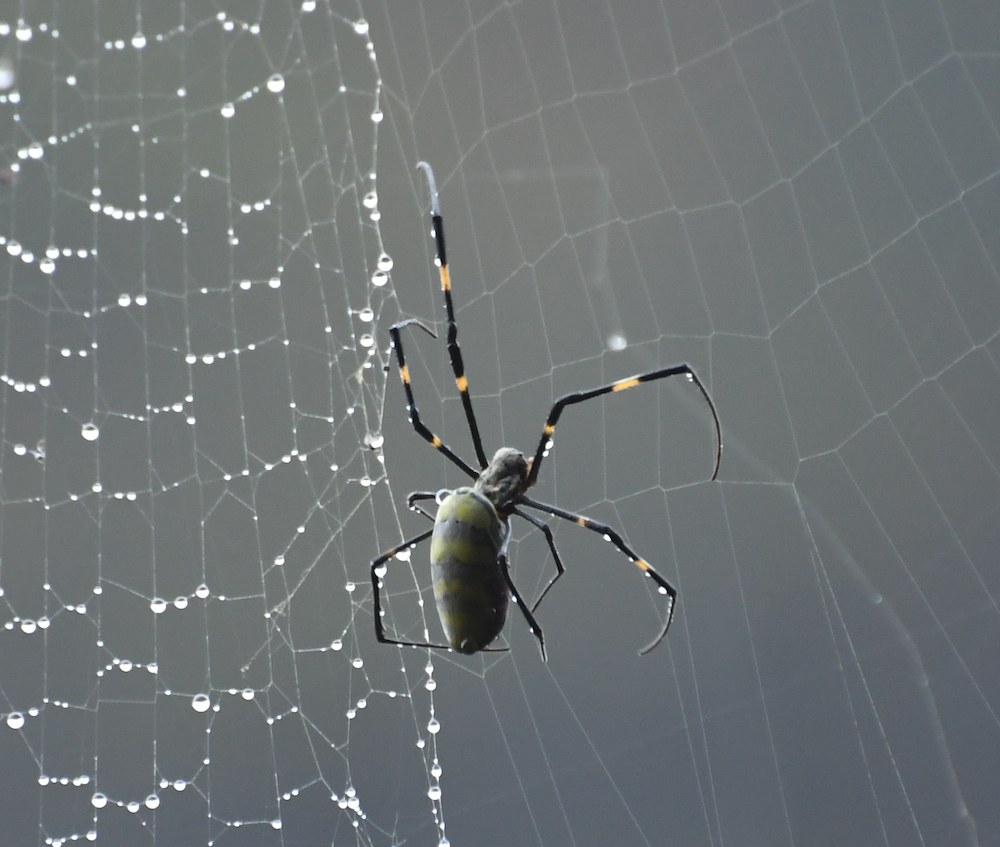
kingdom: Animalia
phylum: Arthropoda
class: Arachnida
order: Araneae
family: Araneidae
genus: Trichonephila
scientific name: Trichonephila clavata
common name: Jorō spider
